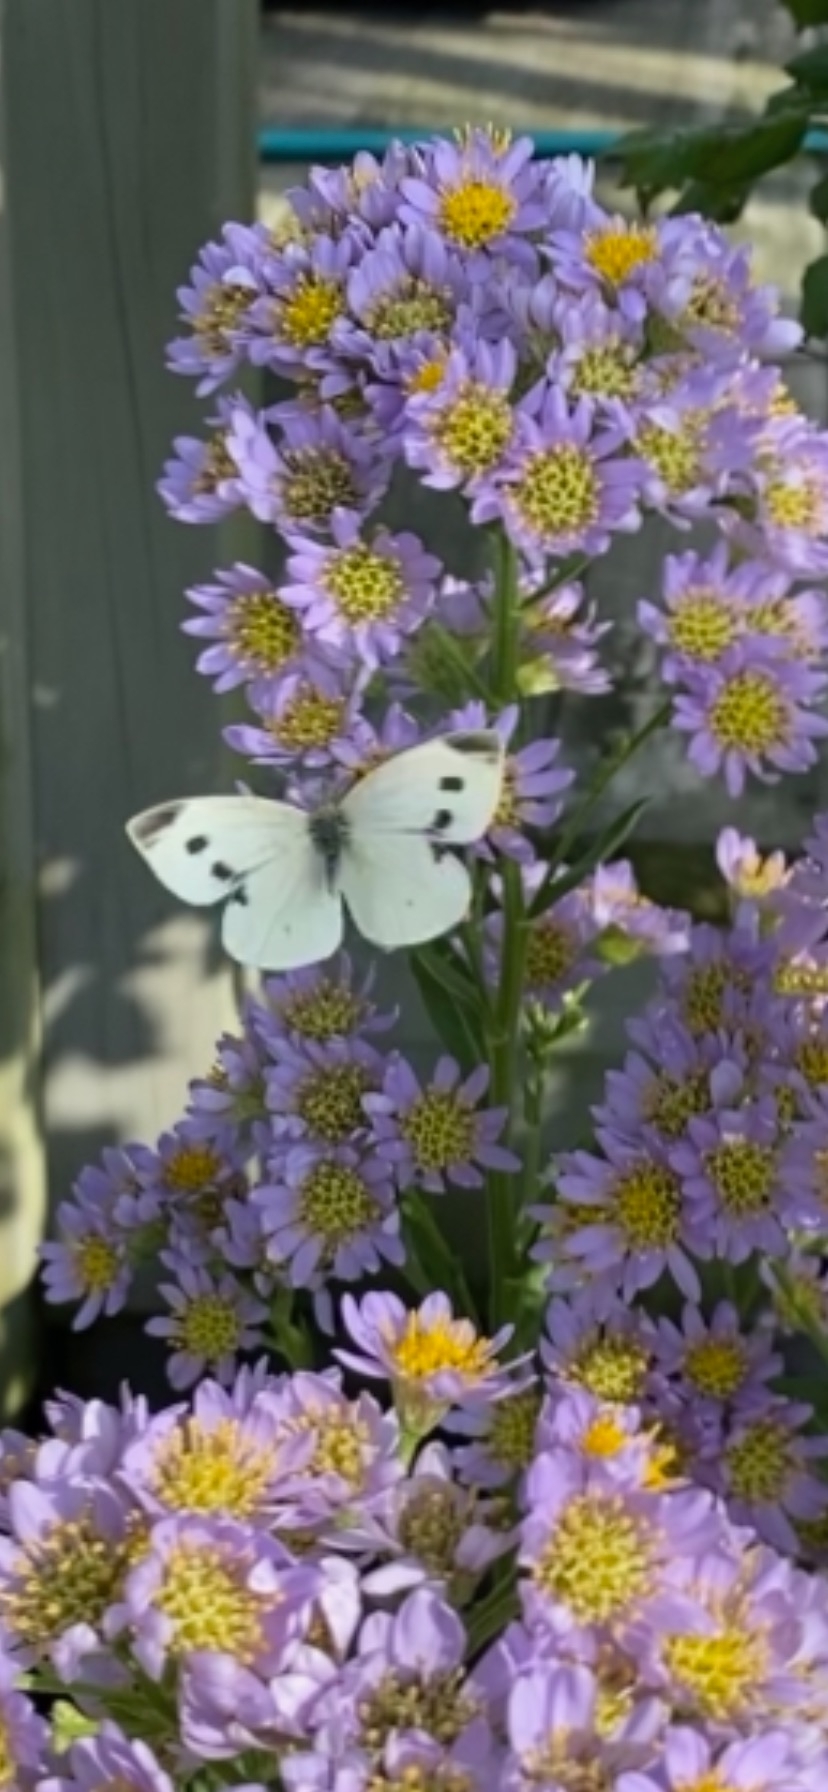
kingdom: Animalia
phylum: Arthropoda
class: Insecta
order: Lepidoptera
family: Pieridae
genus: Pieris
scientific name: Pieris rapae
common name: Small white
